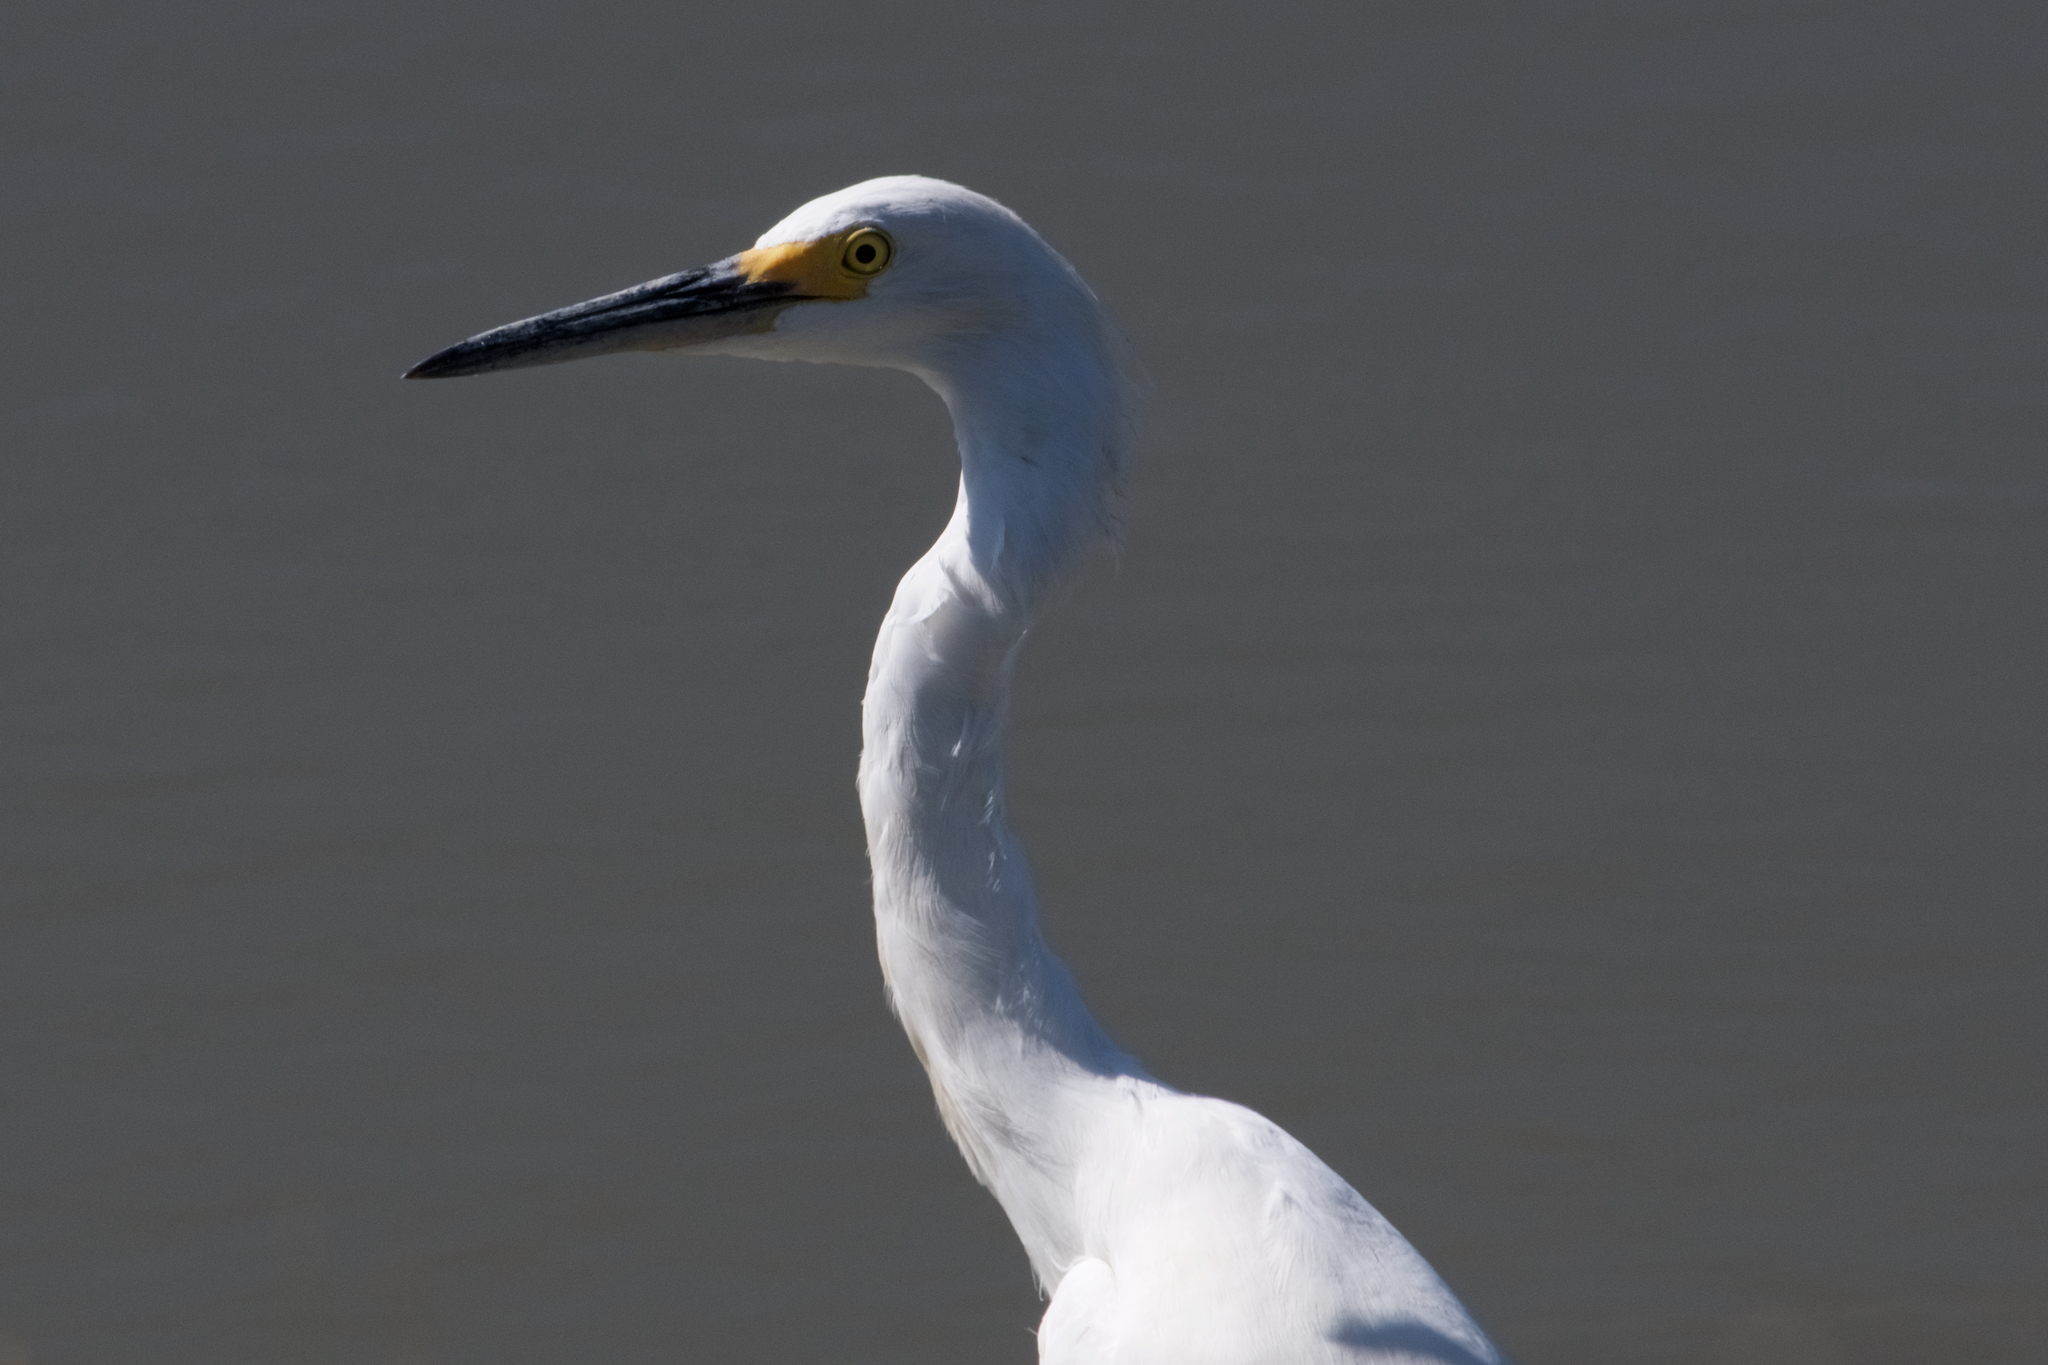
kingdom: Animalia
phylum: Chordata
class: Aves
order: Pelecaniformes
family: Ardeidae
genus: Egretta
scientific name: Egretta thula
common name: Snowy egret
